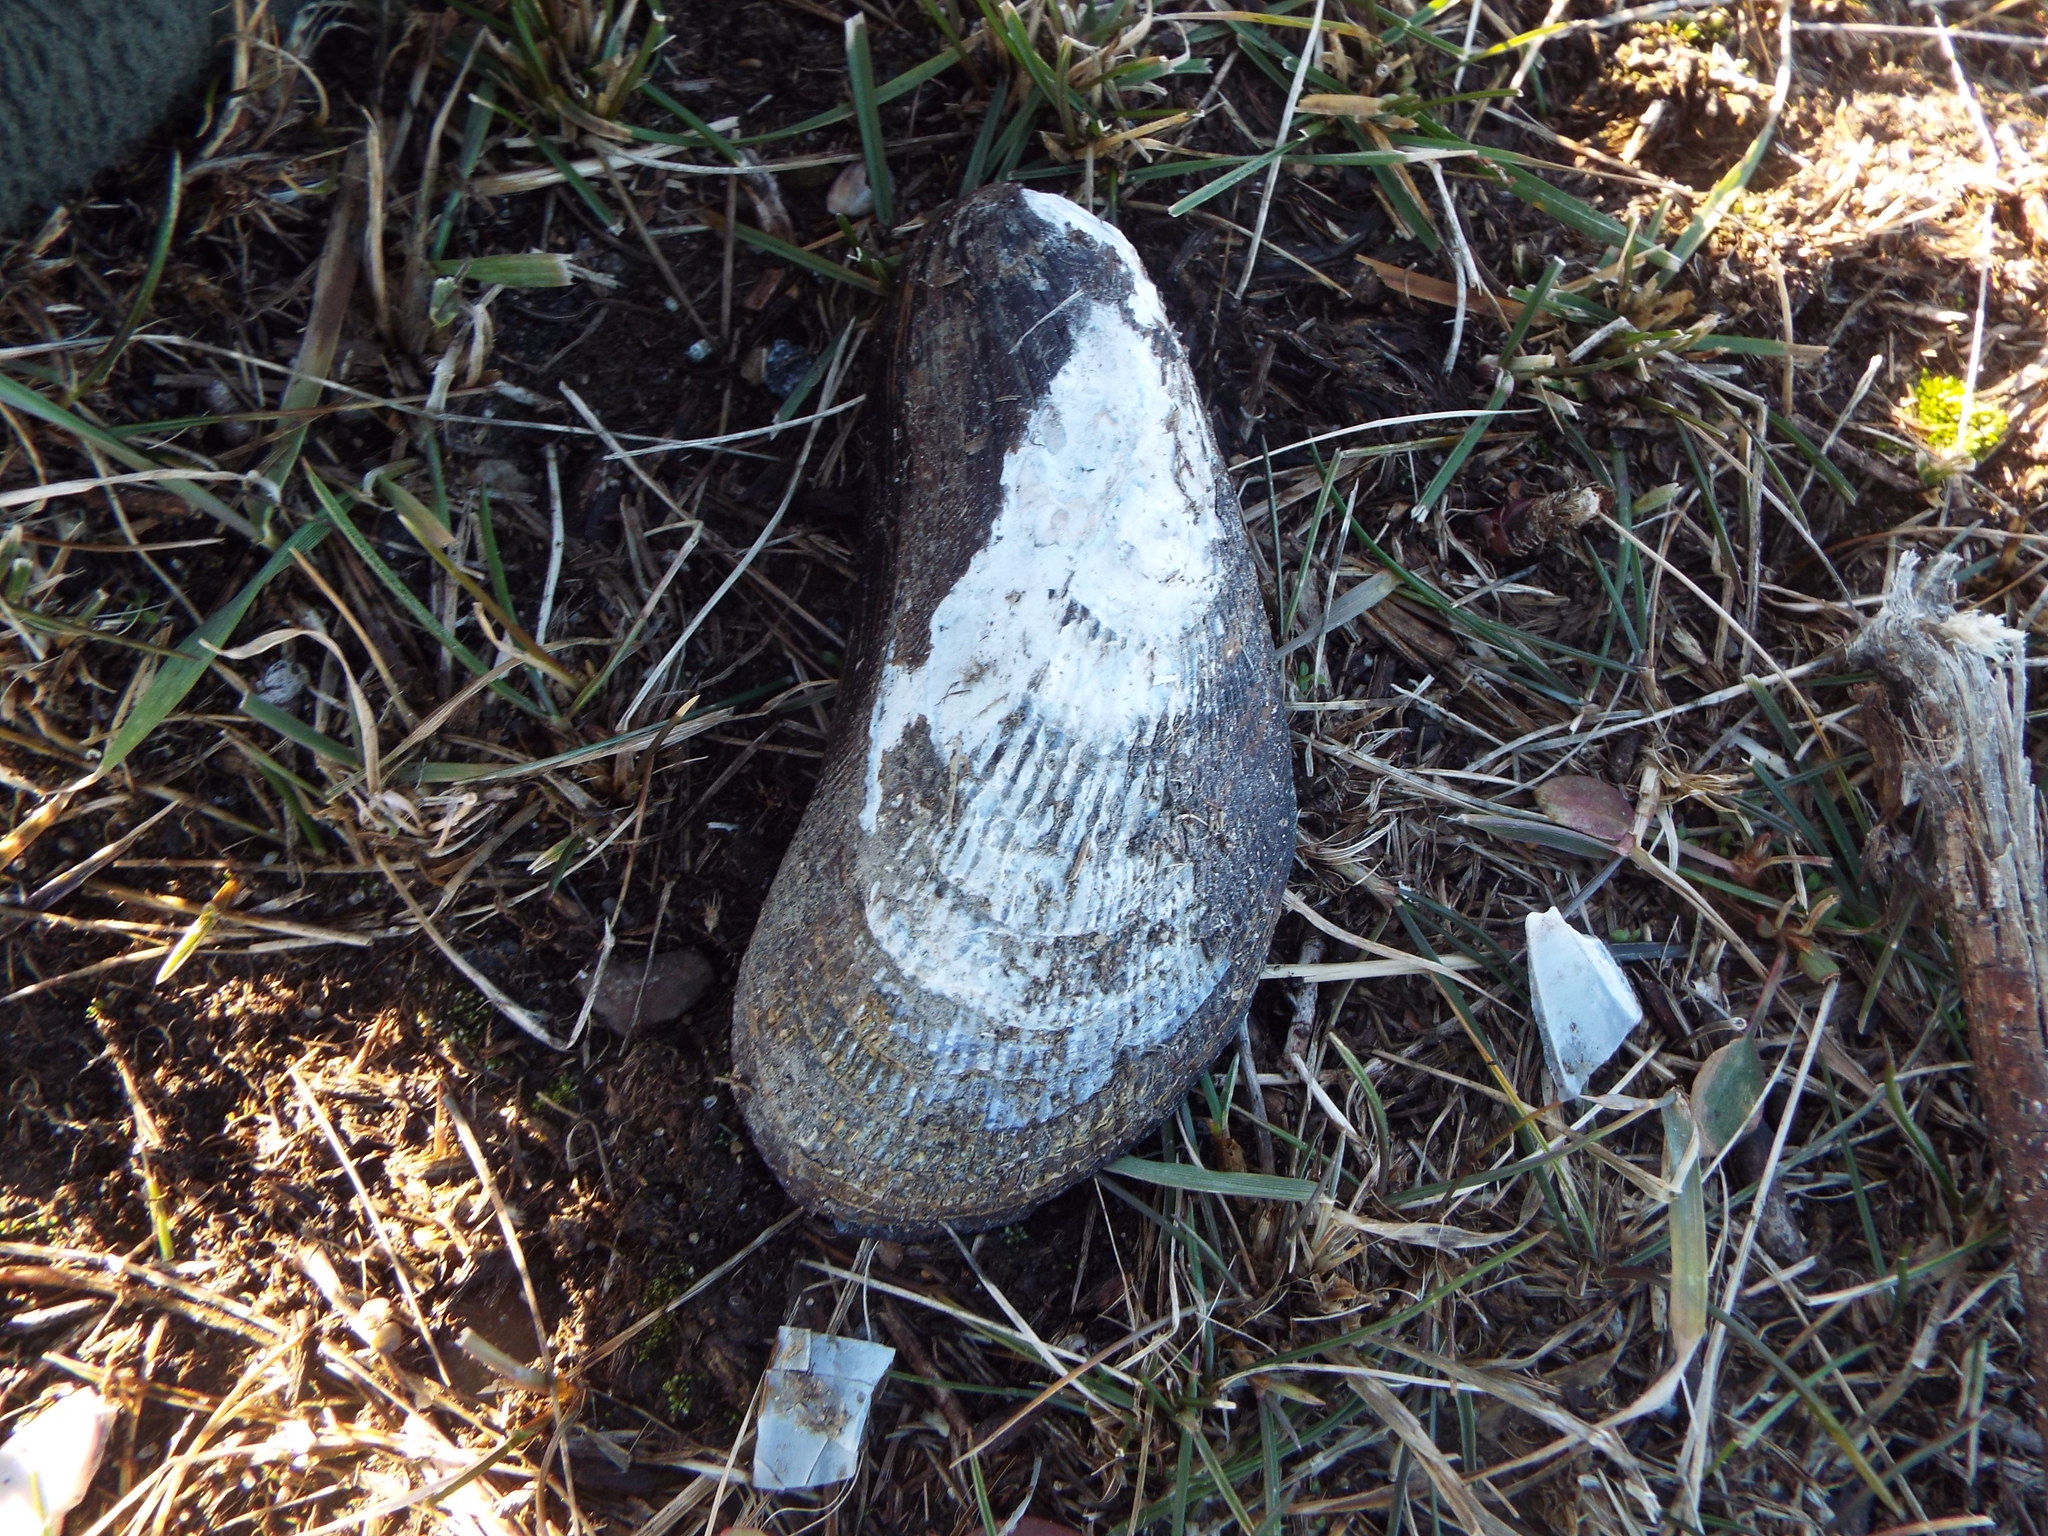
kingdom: Animalia
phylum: Mollusca
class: Bivalvia
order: Mytilida
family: Mytilidae
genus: Geukensia
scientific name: Geukensia demissa
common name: Ribbed mussel
